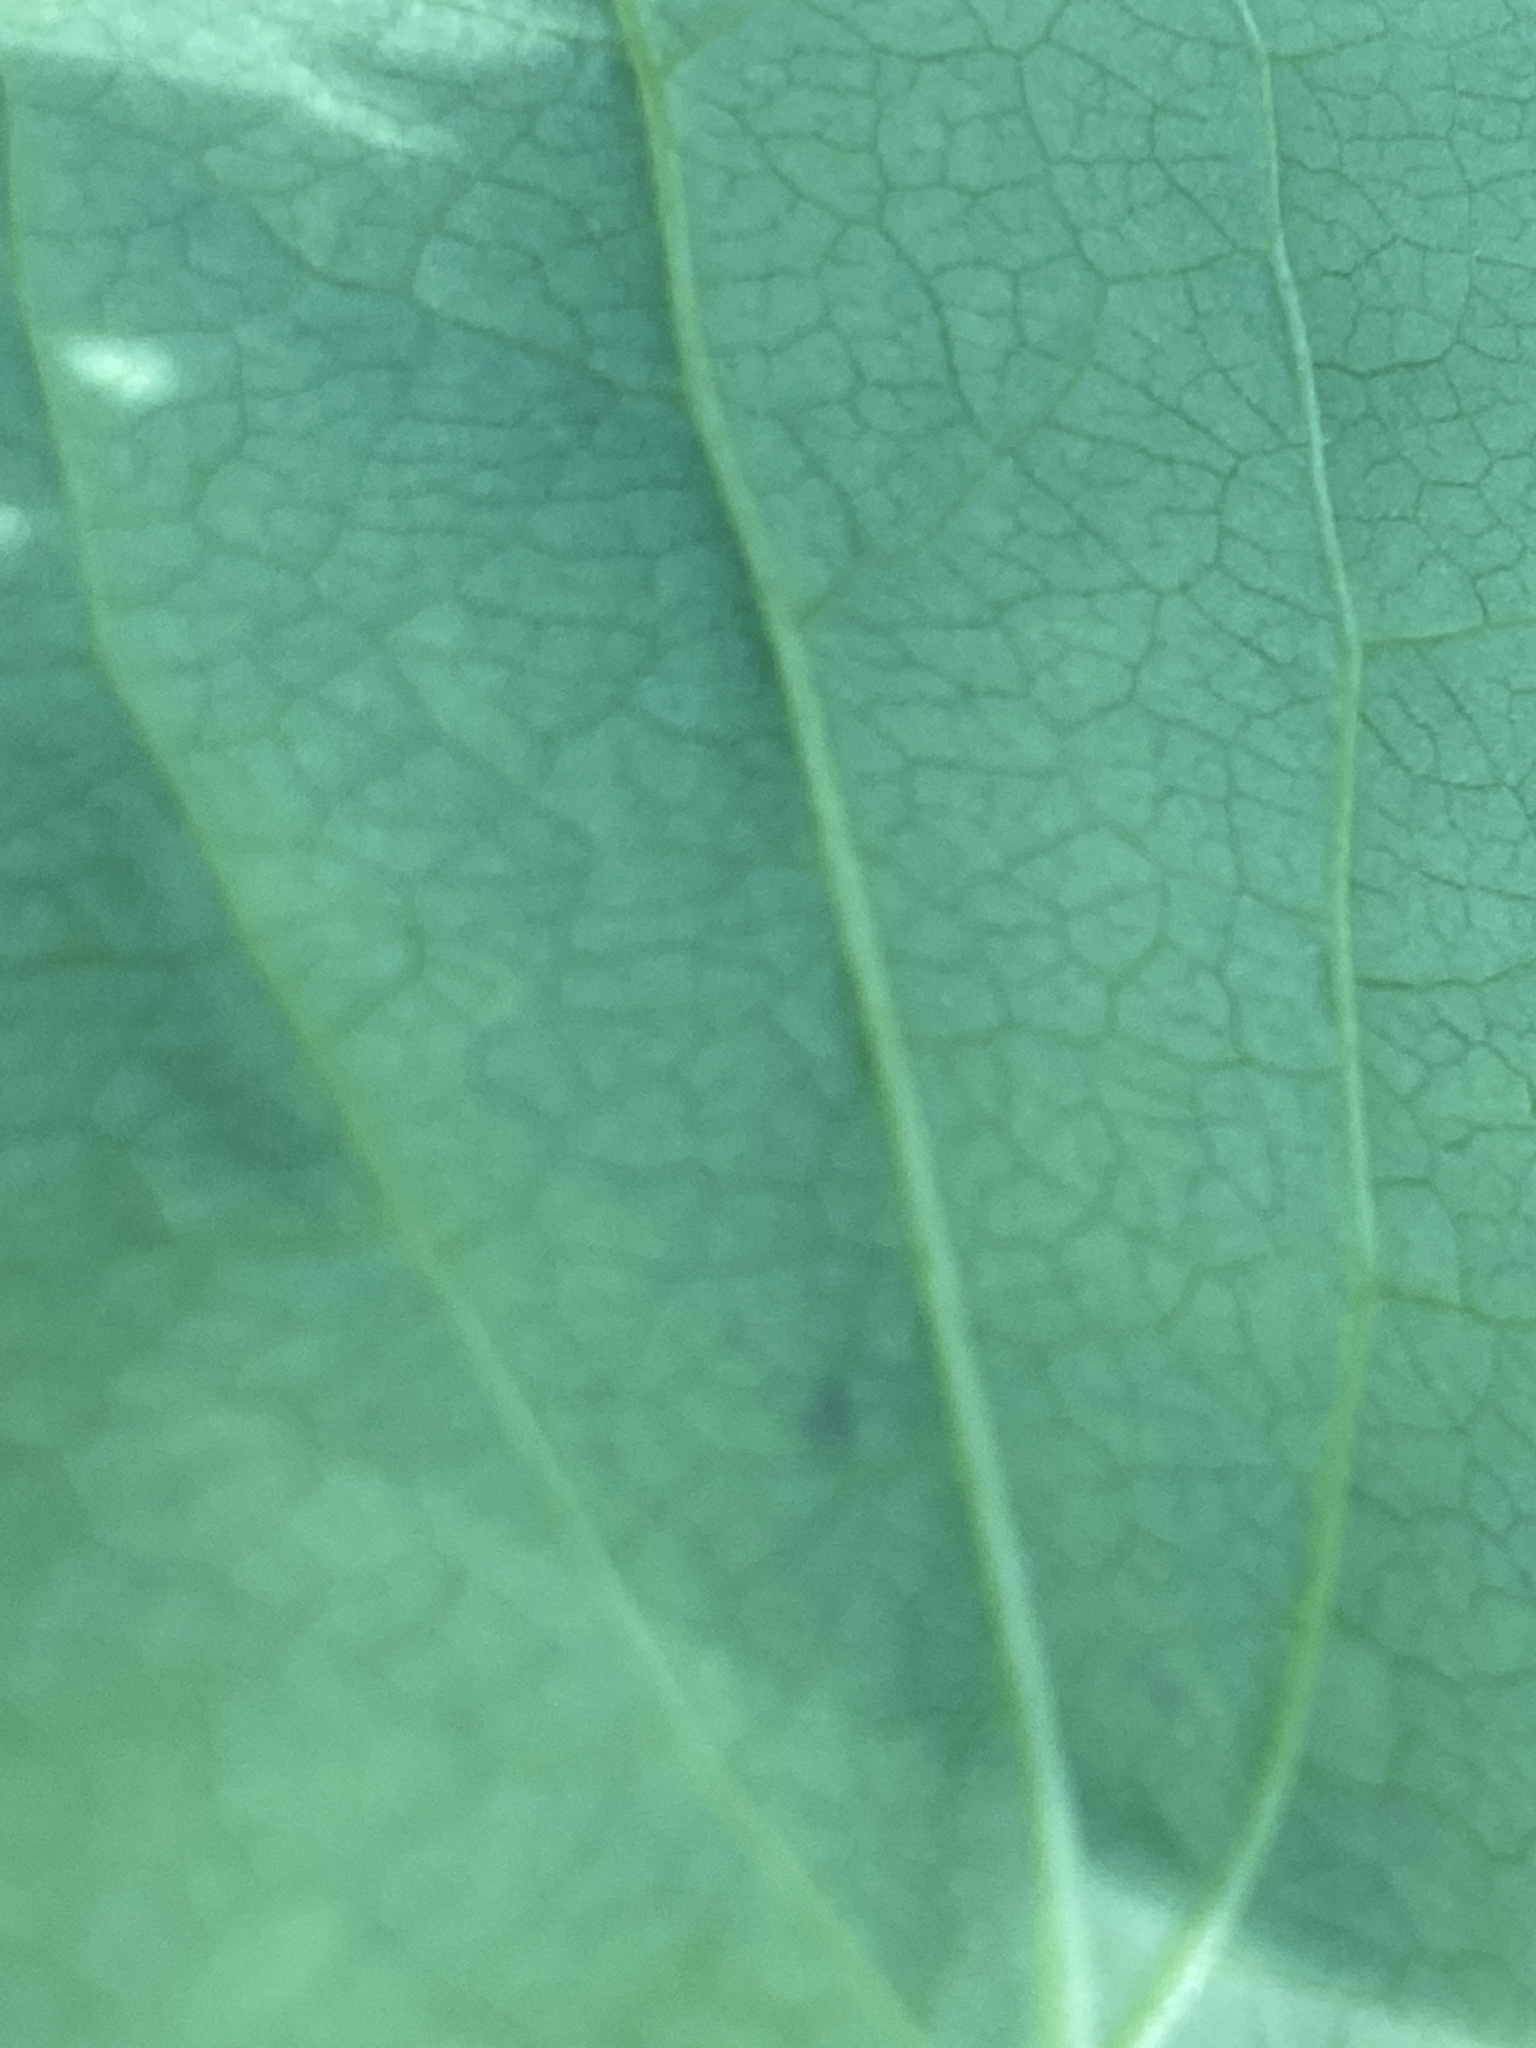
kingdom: Plantae
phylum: Tracheophyta
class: Liliopsida
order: Liliales
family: Smilacaceae
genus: Smilax
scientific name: Smilax biltmoreana
